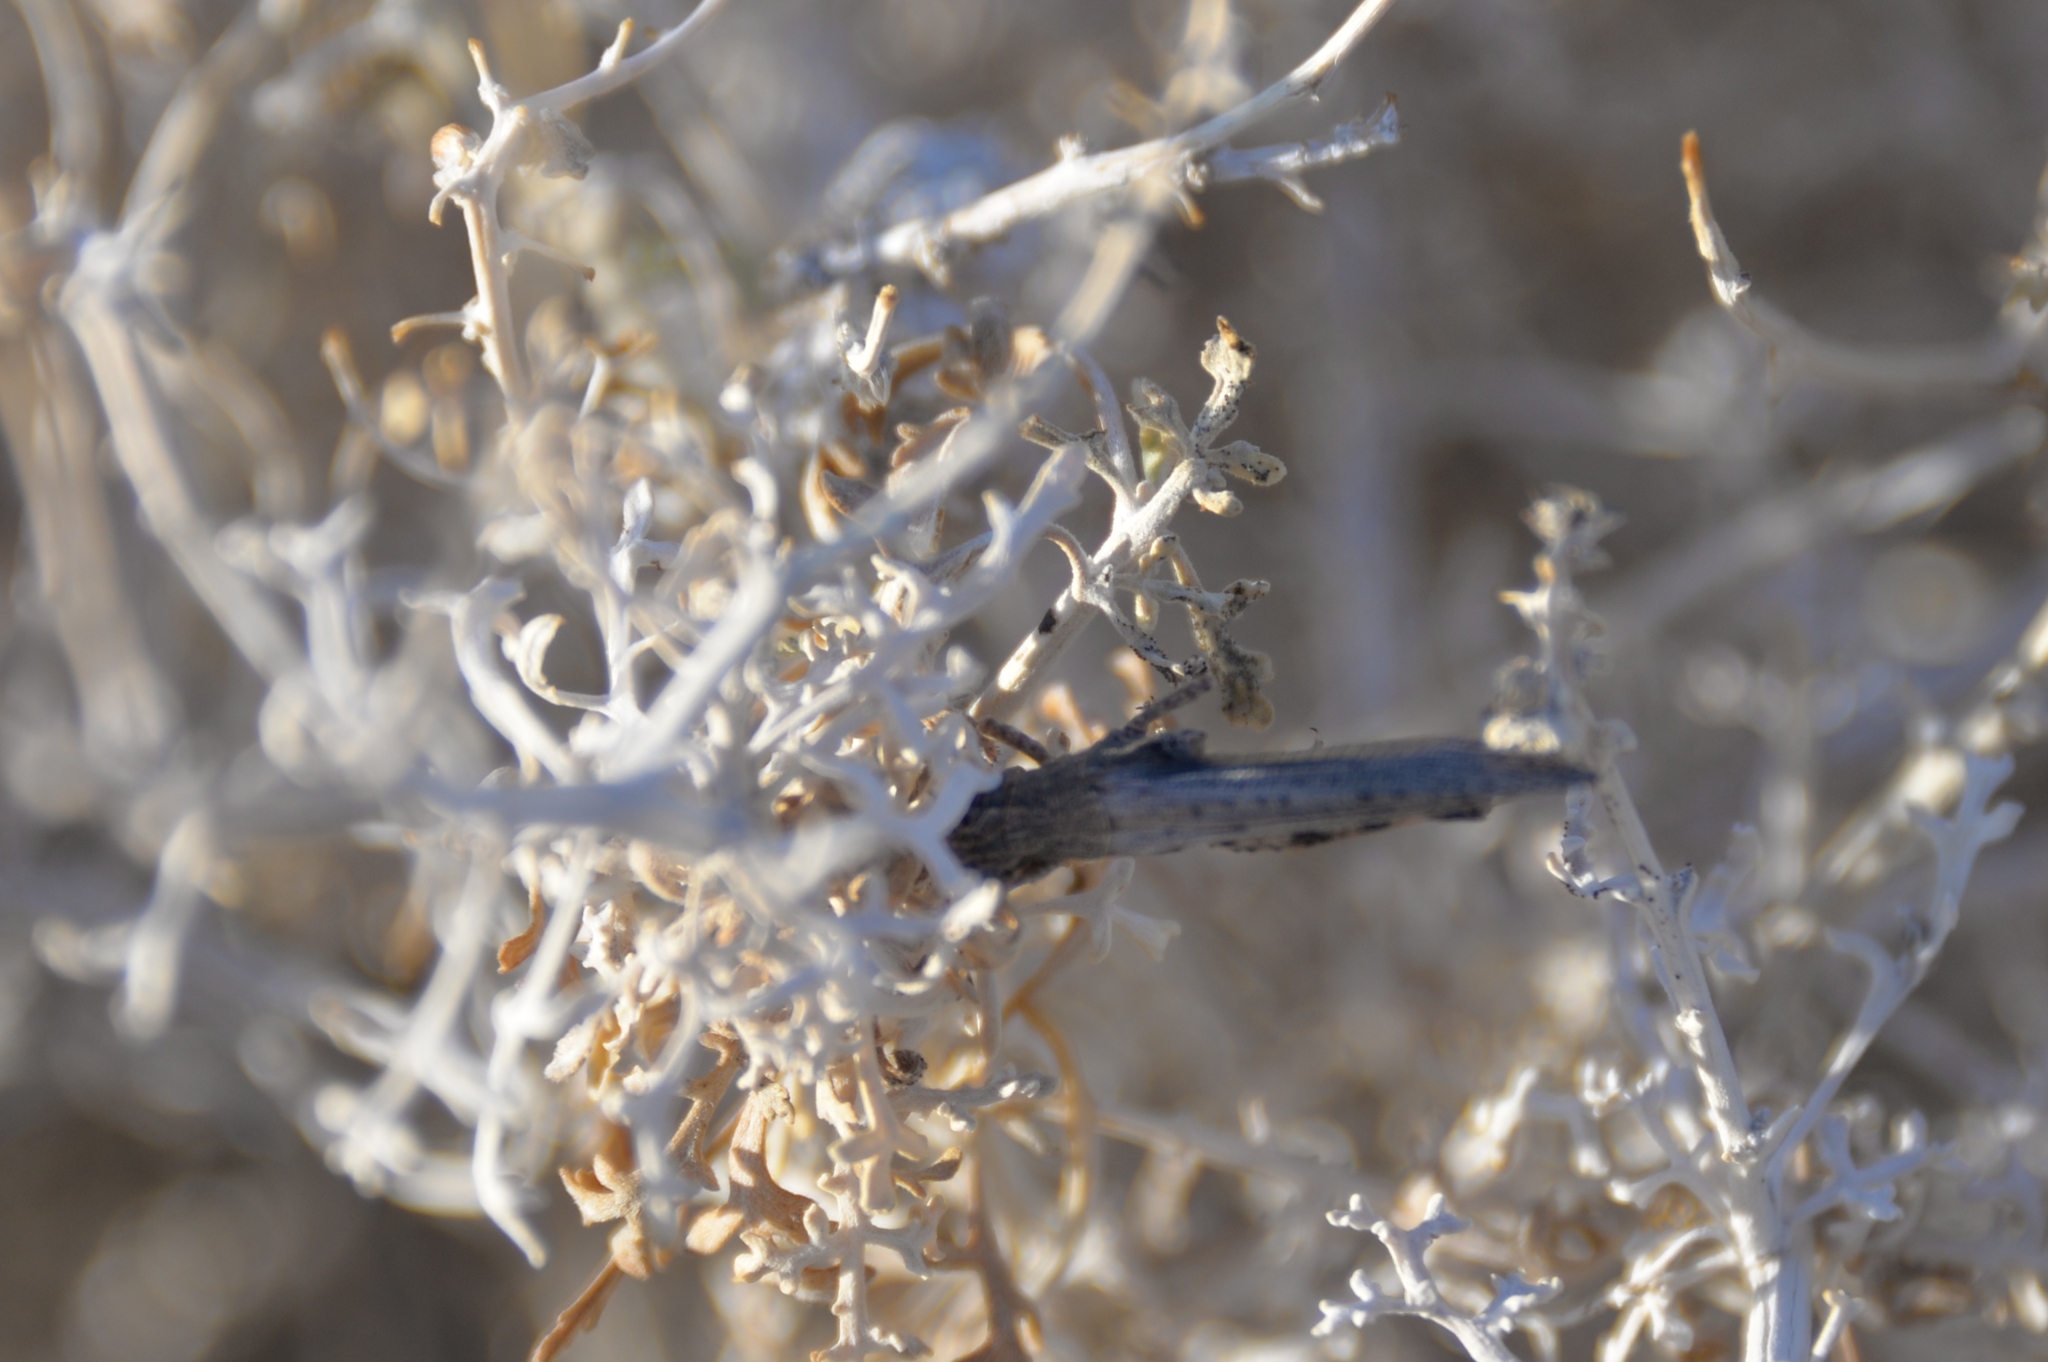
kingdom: Animalia
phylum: Arthropoda
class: Insecta
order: Orthoptera
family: Acrididae
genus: Ligurotettix
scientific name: Ligurotettix coquilletti
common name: Desert clicker grasshopper
